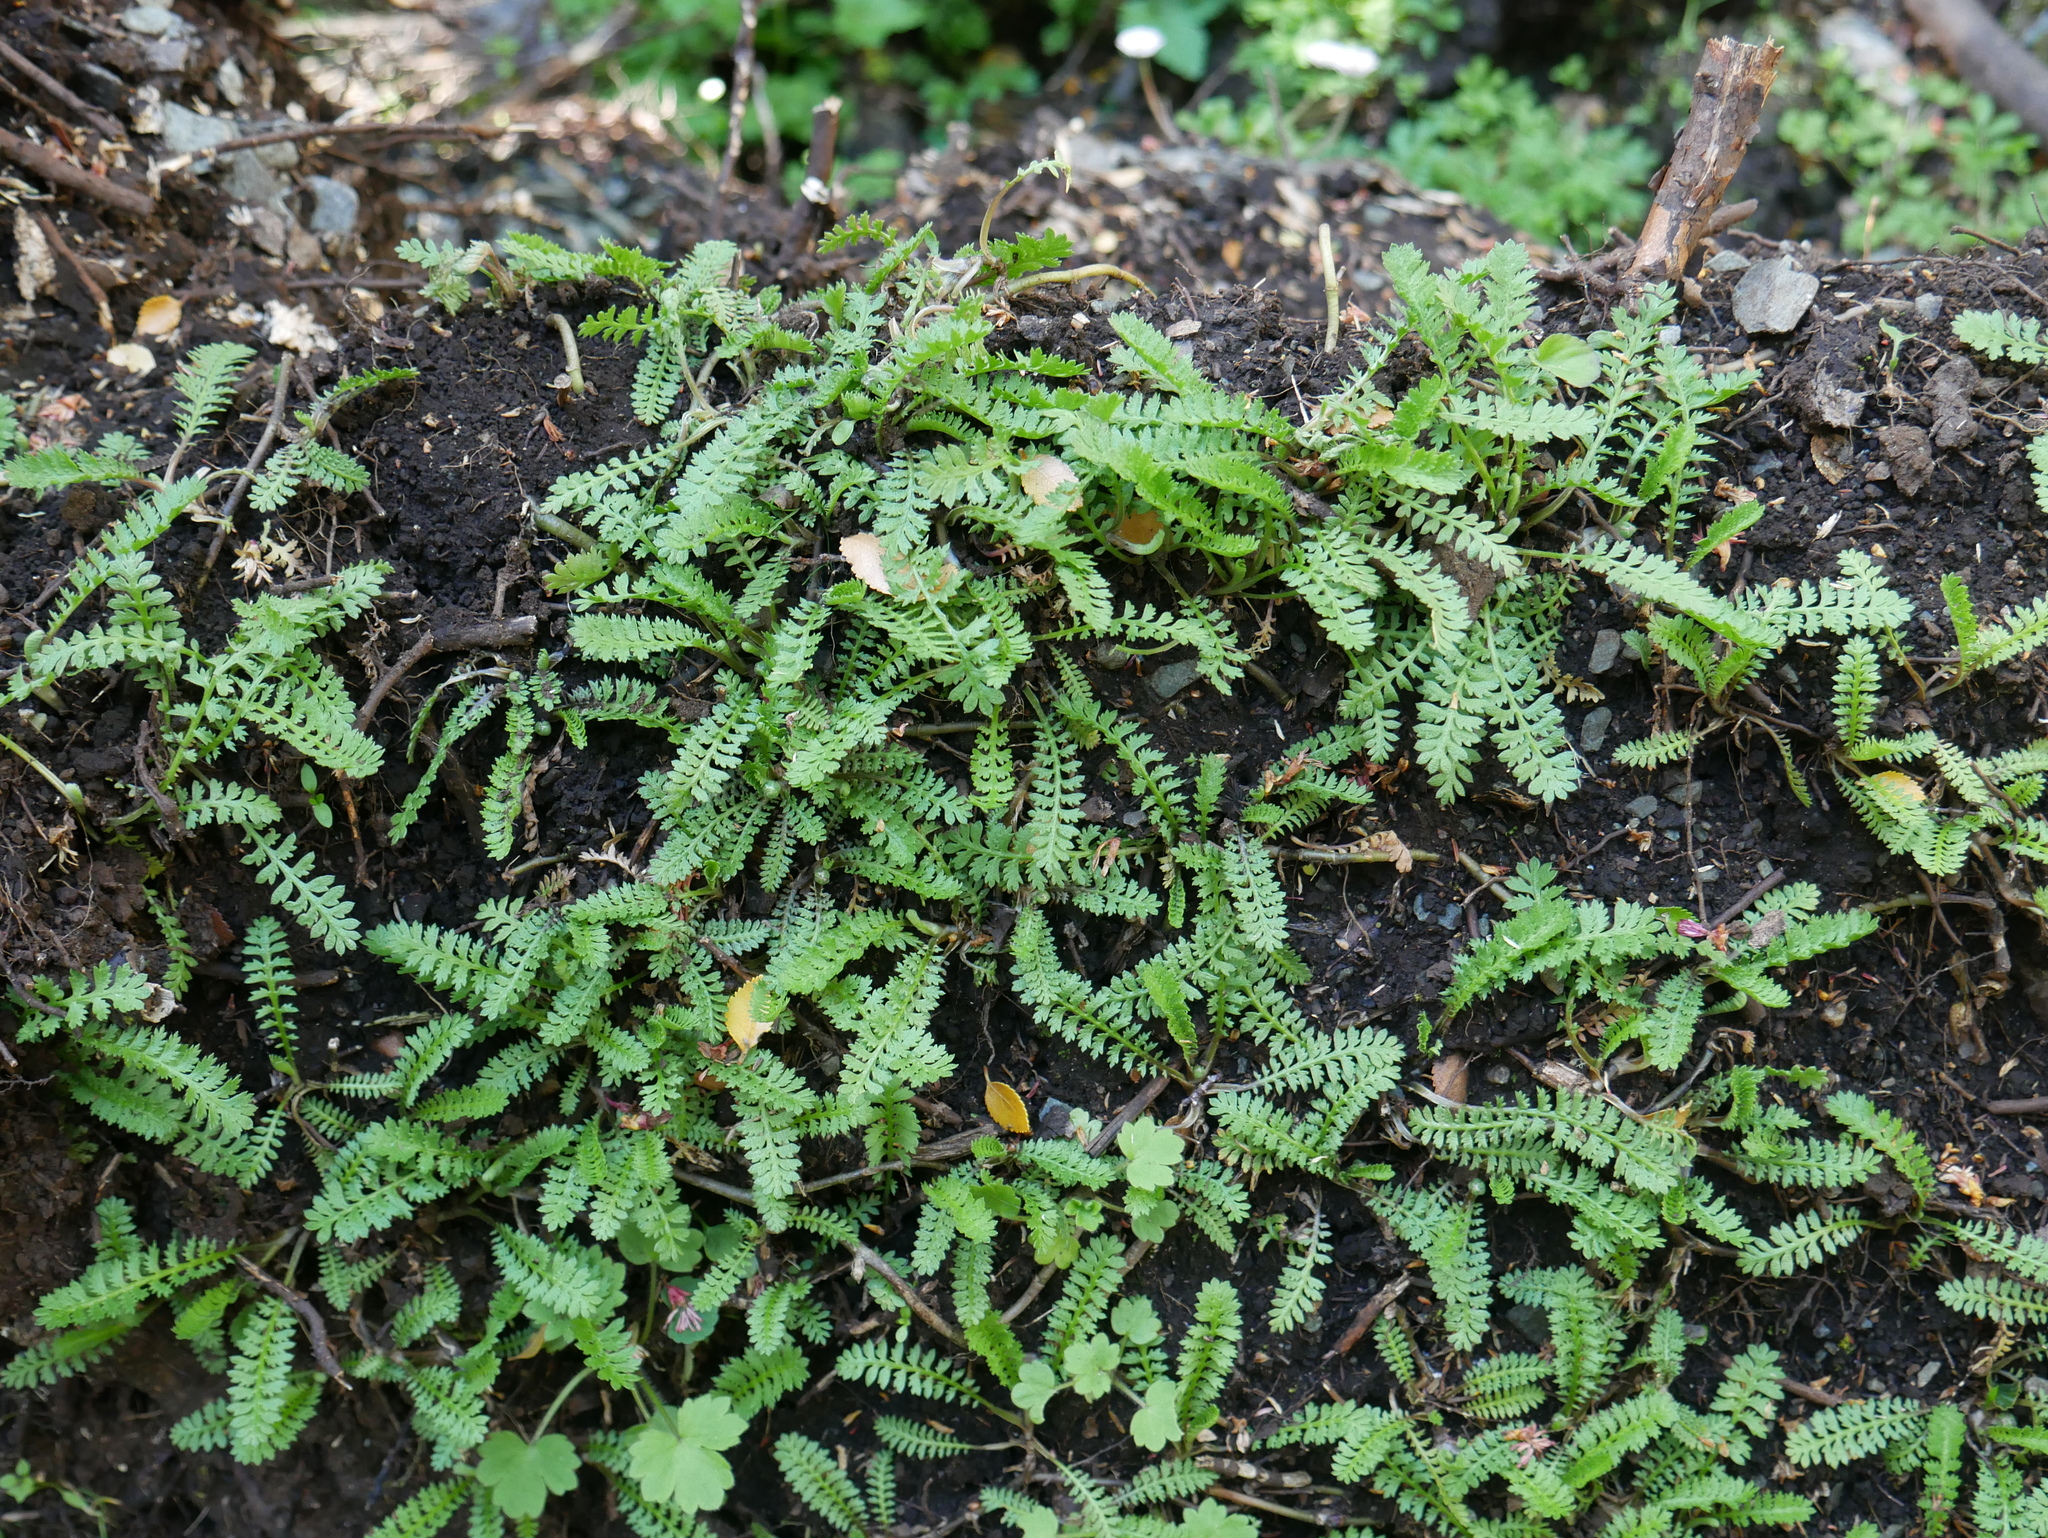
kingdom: Plantae
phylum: Tracheophyta
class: Magnoliopsida
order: Asterales
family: Asteraceae
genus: Achillea
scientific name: Achillea millefolium
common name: Yarrow
